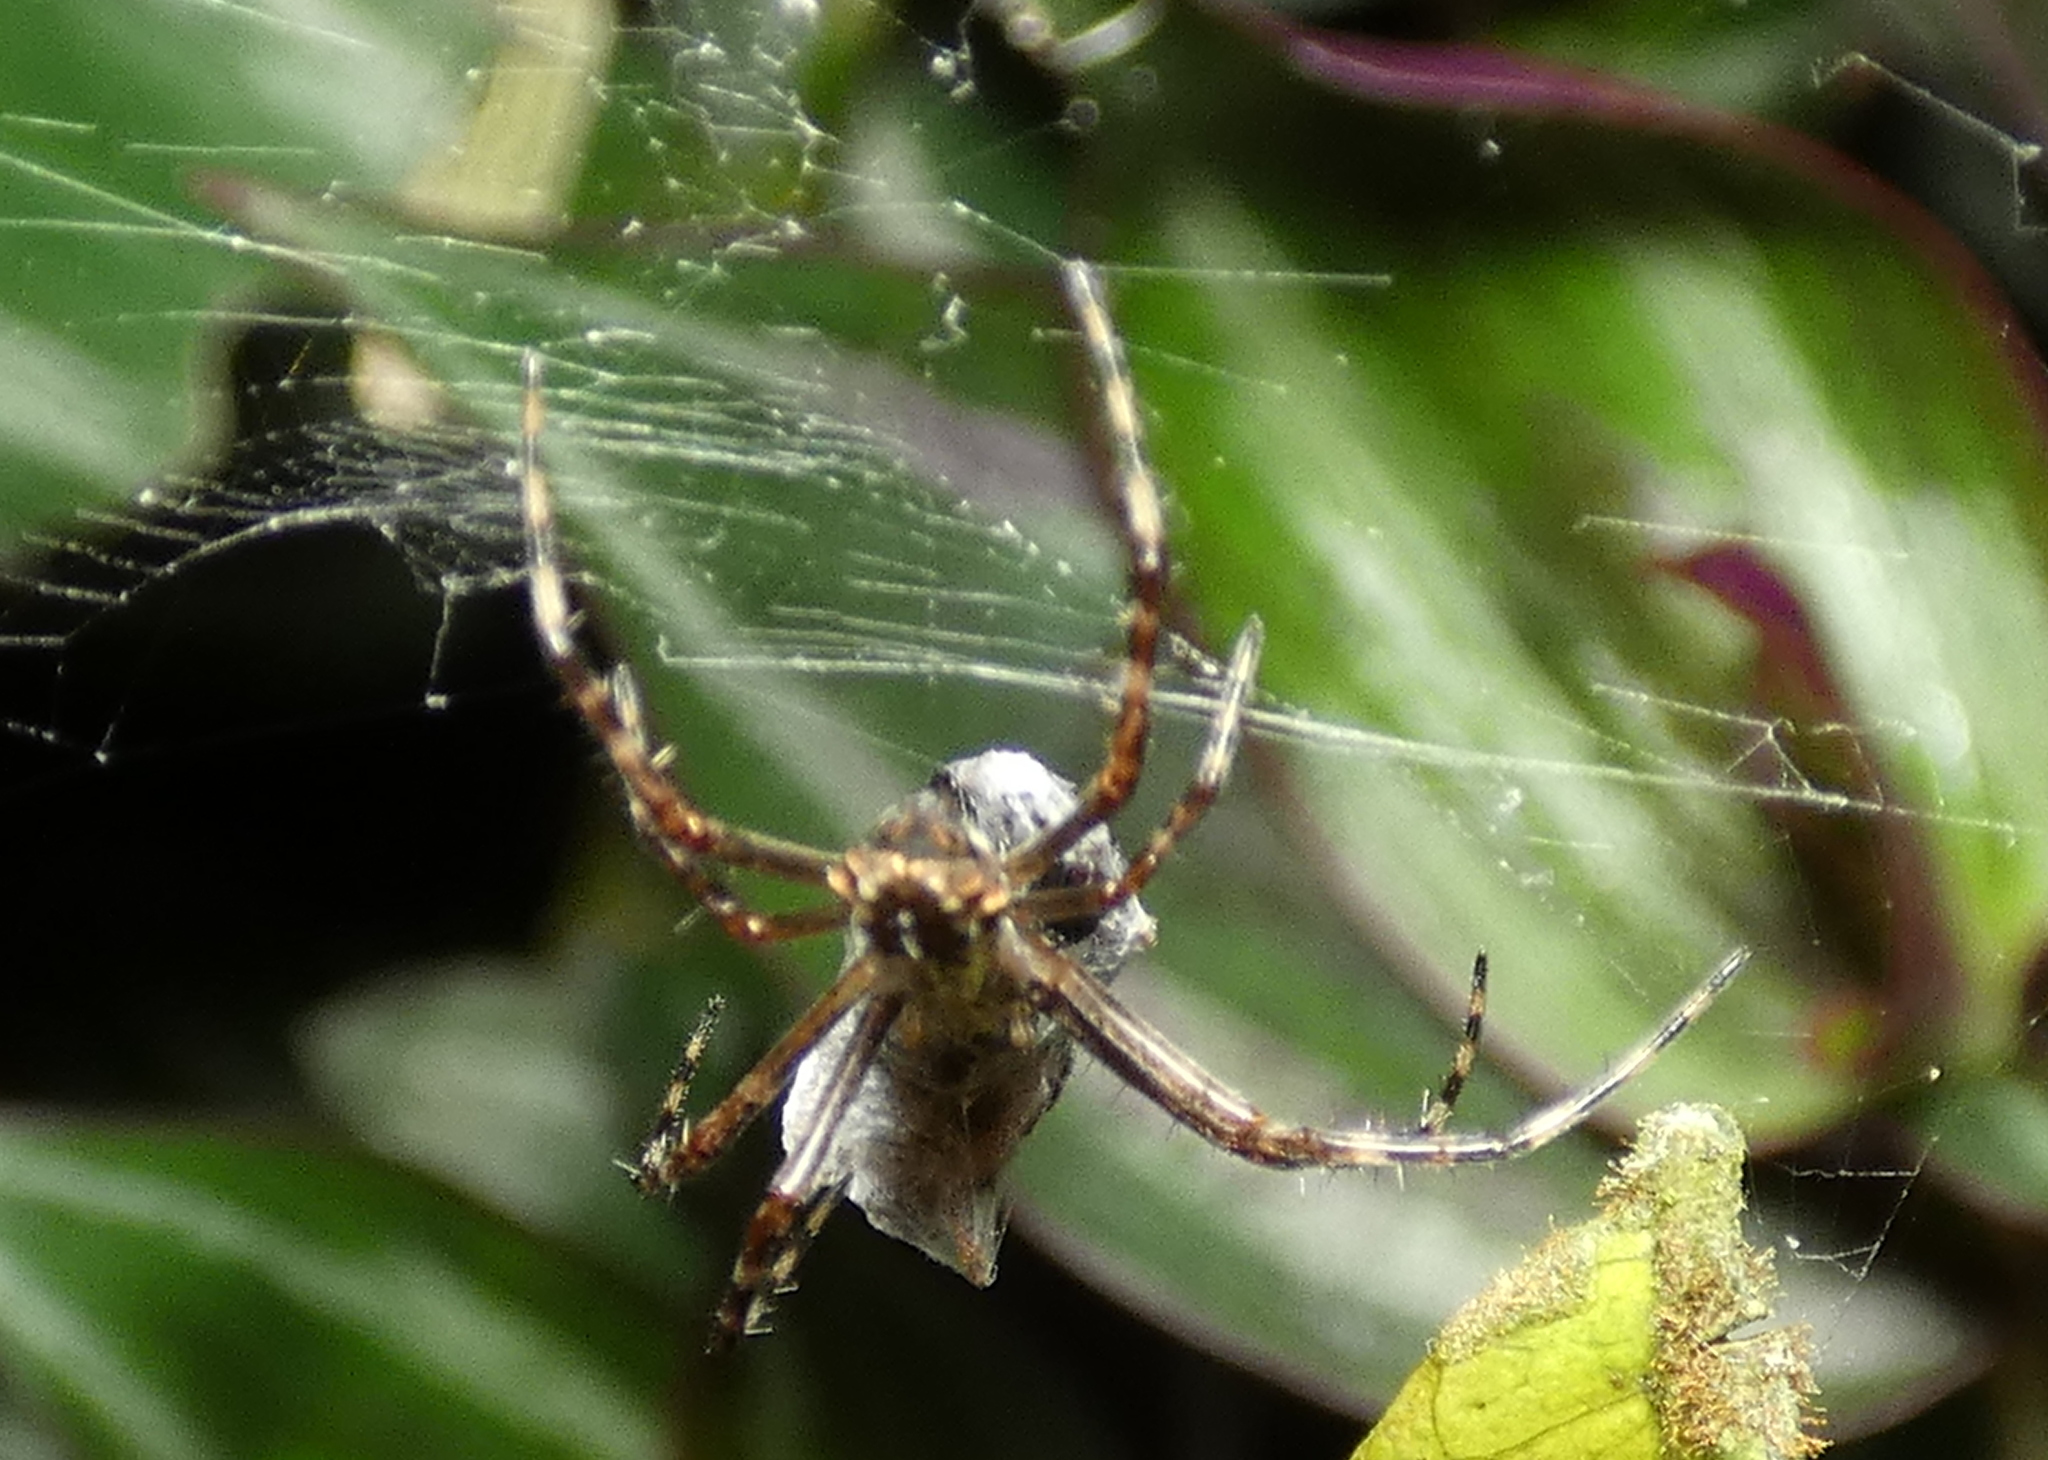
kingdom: Animalia
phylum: Arthropoda
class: Arachnida
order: Araneae
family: Araneidae
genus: Argiope
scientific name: Argiope argentata
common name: Orb weavers
